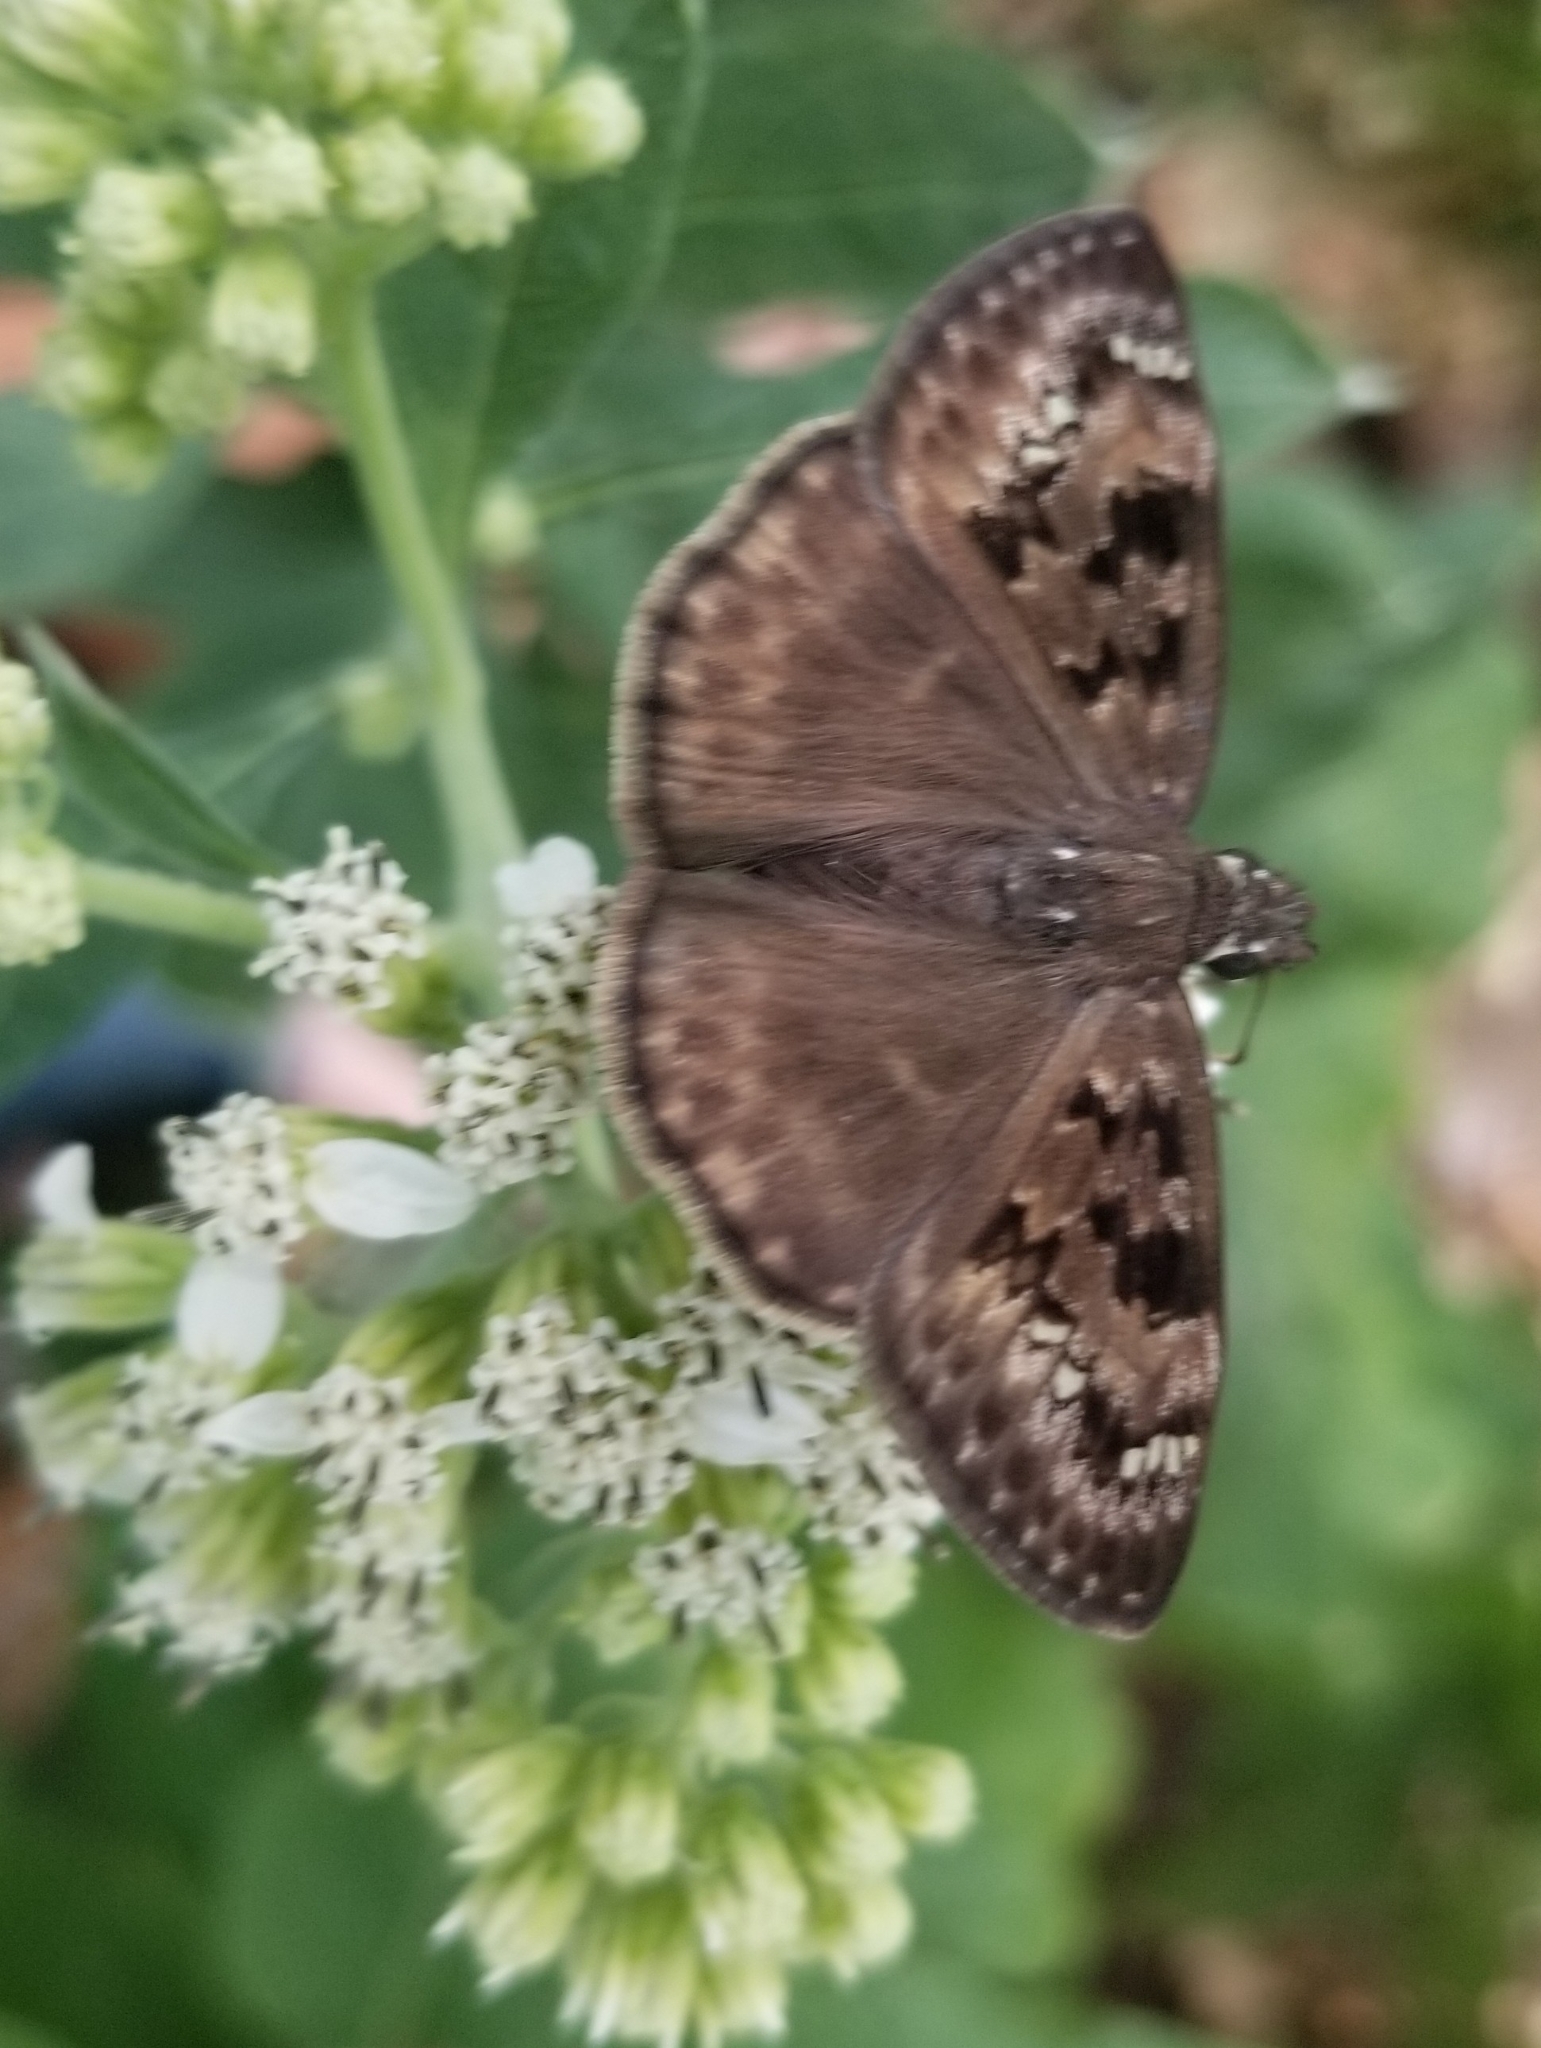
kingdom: Animalia
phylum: Arthropoda
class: Insecta
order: Lepidoptera
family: Hesperiidae
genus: Erynnis
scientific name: Erynnis horatius
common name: Horace's duskywing
